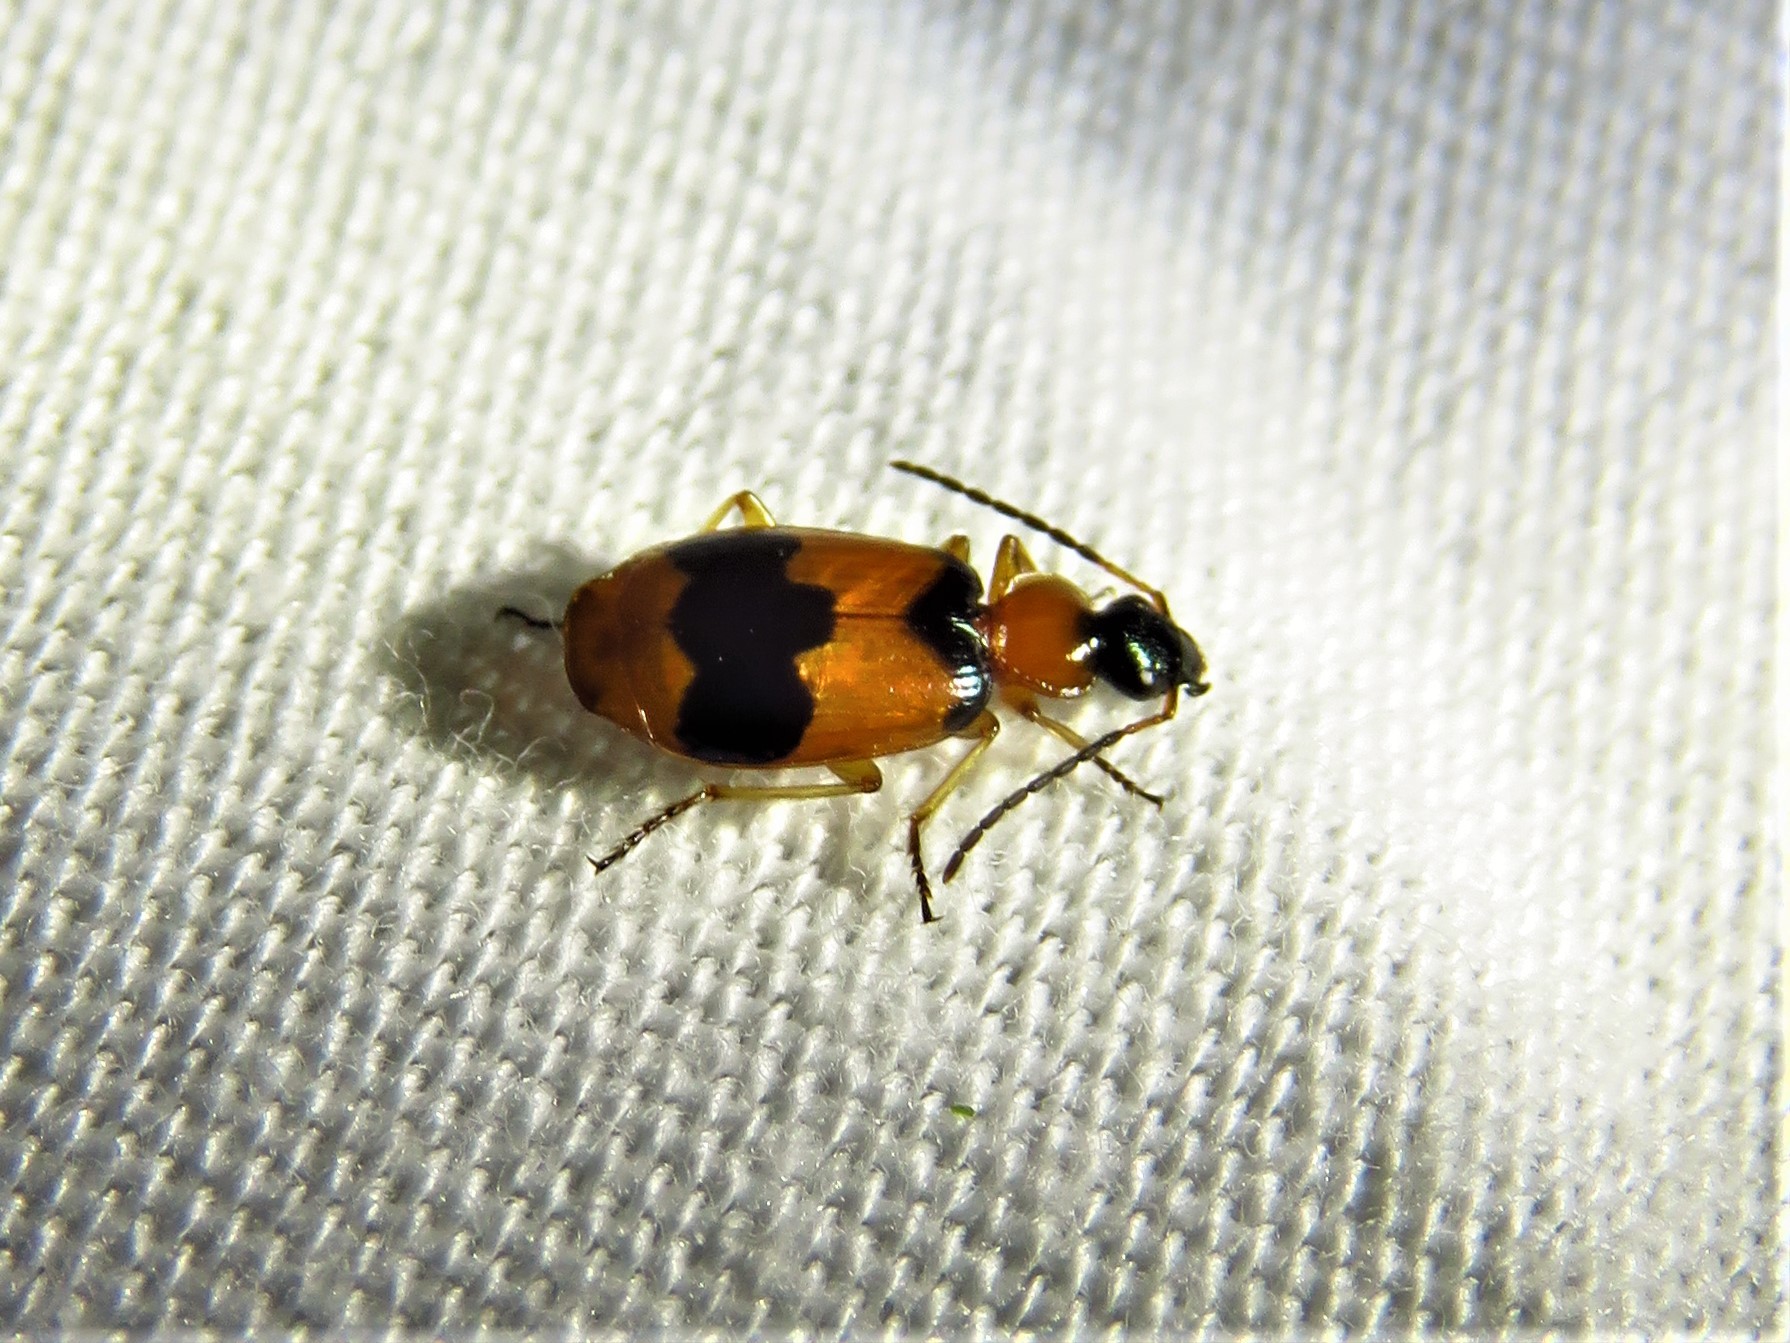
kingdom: Animalia
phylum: Arthropoda
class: Insecta
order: Coleoptera
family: Carabidae
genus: Lebia
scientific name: Lebia pulchella
